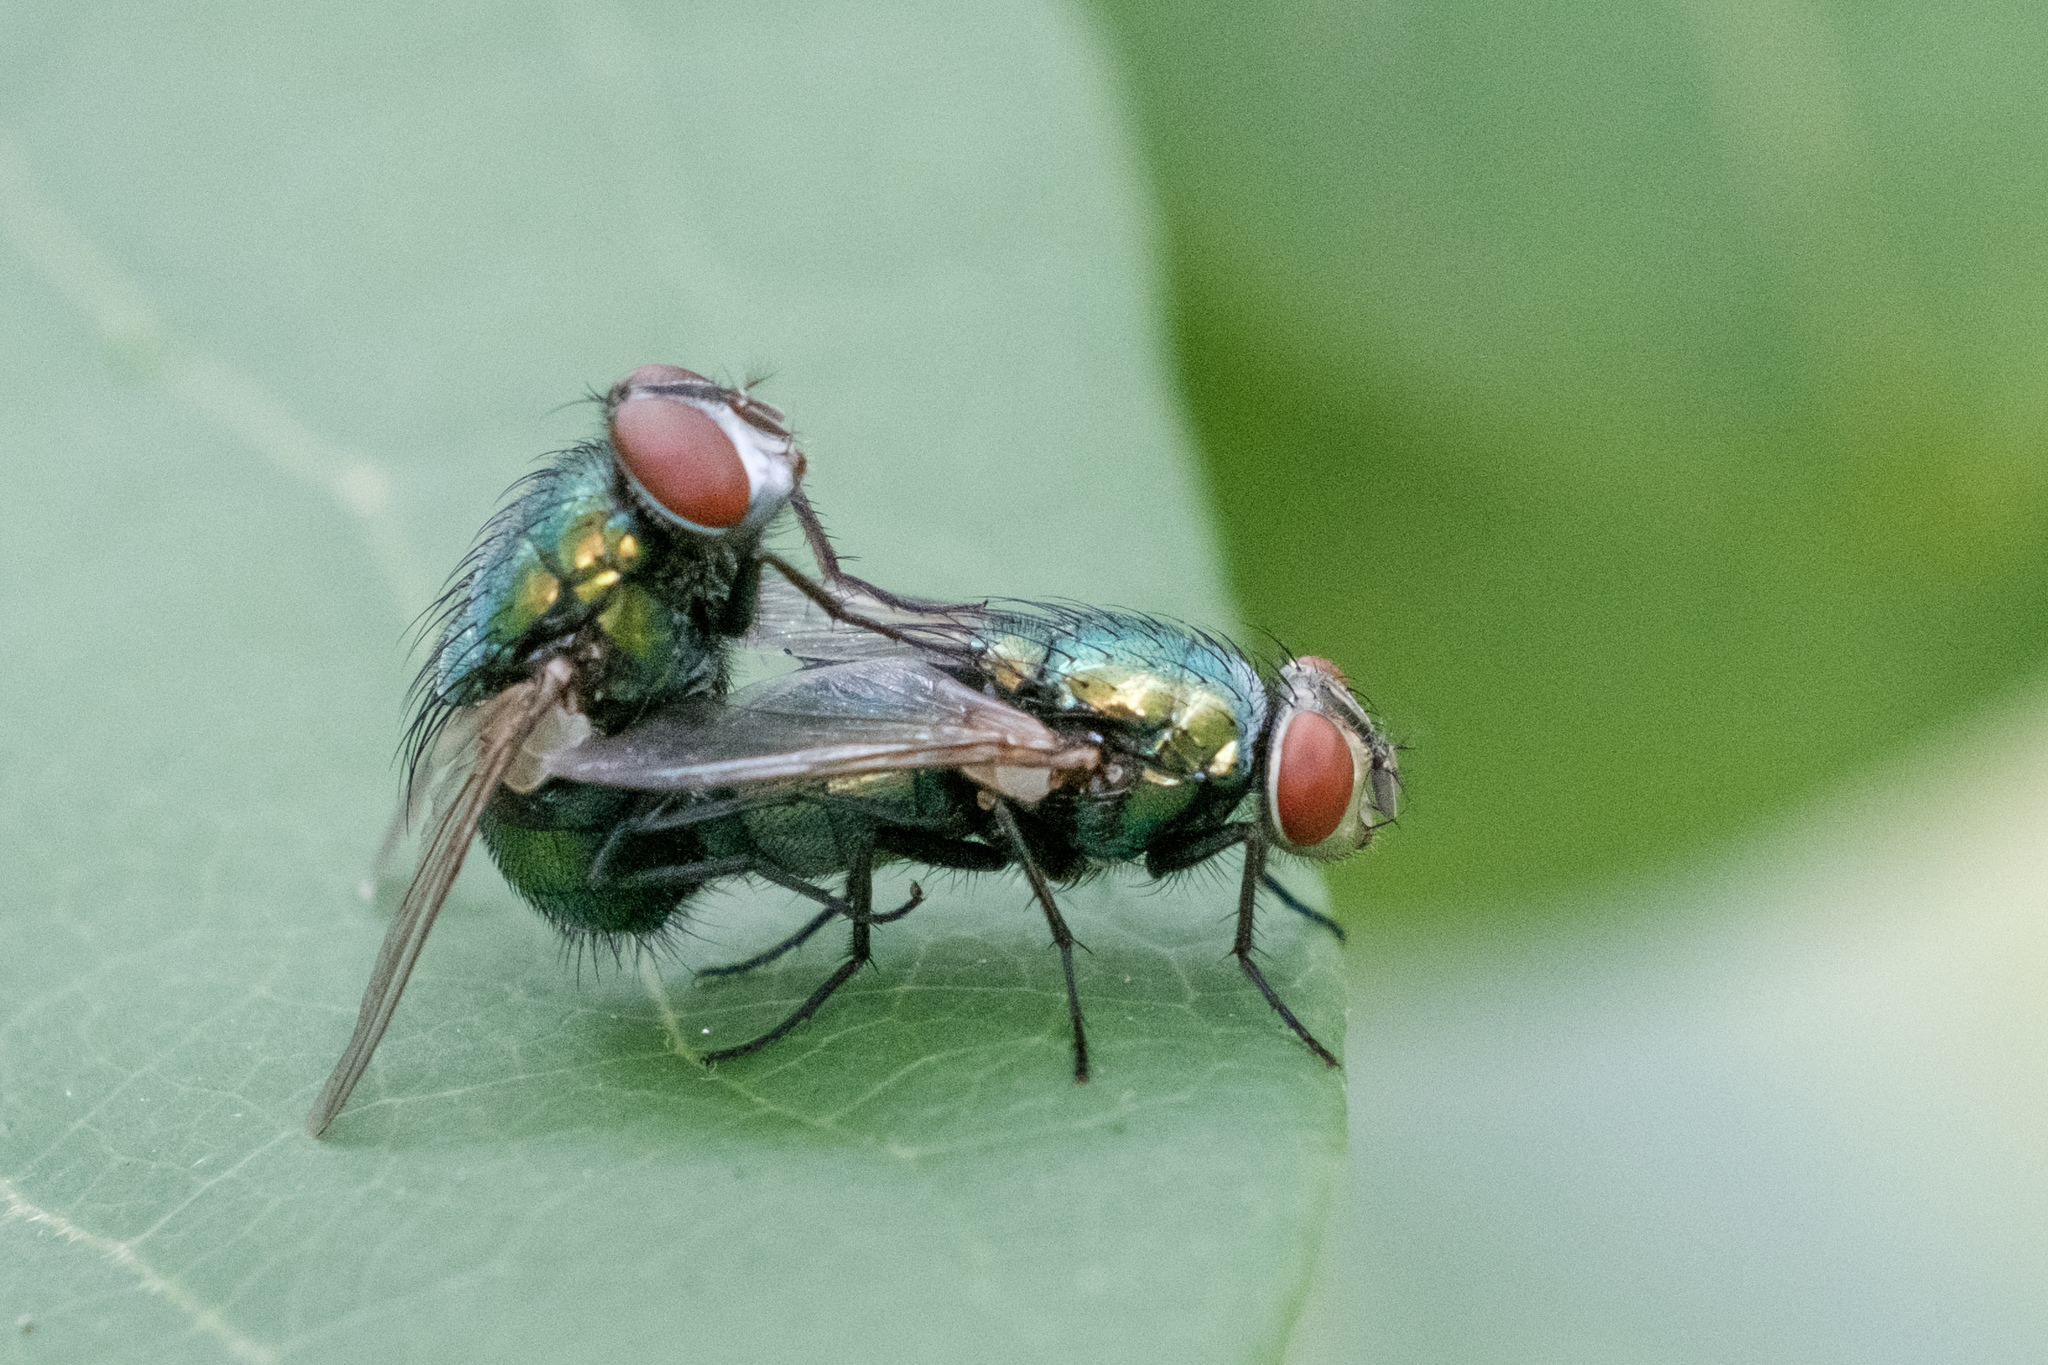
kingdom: Animalia
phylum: Arthropoda
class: Insecta
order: Diptera
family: Calliphoridae
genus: Lucilia
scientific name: Lucilia sericata
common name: Blow fly
